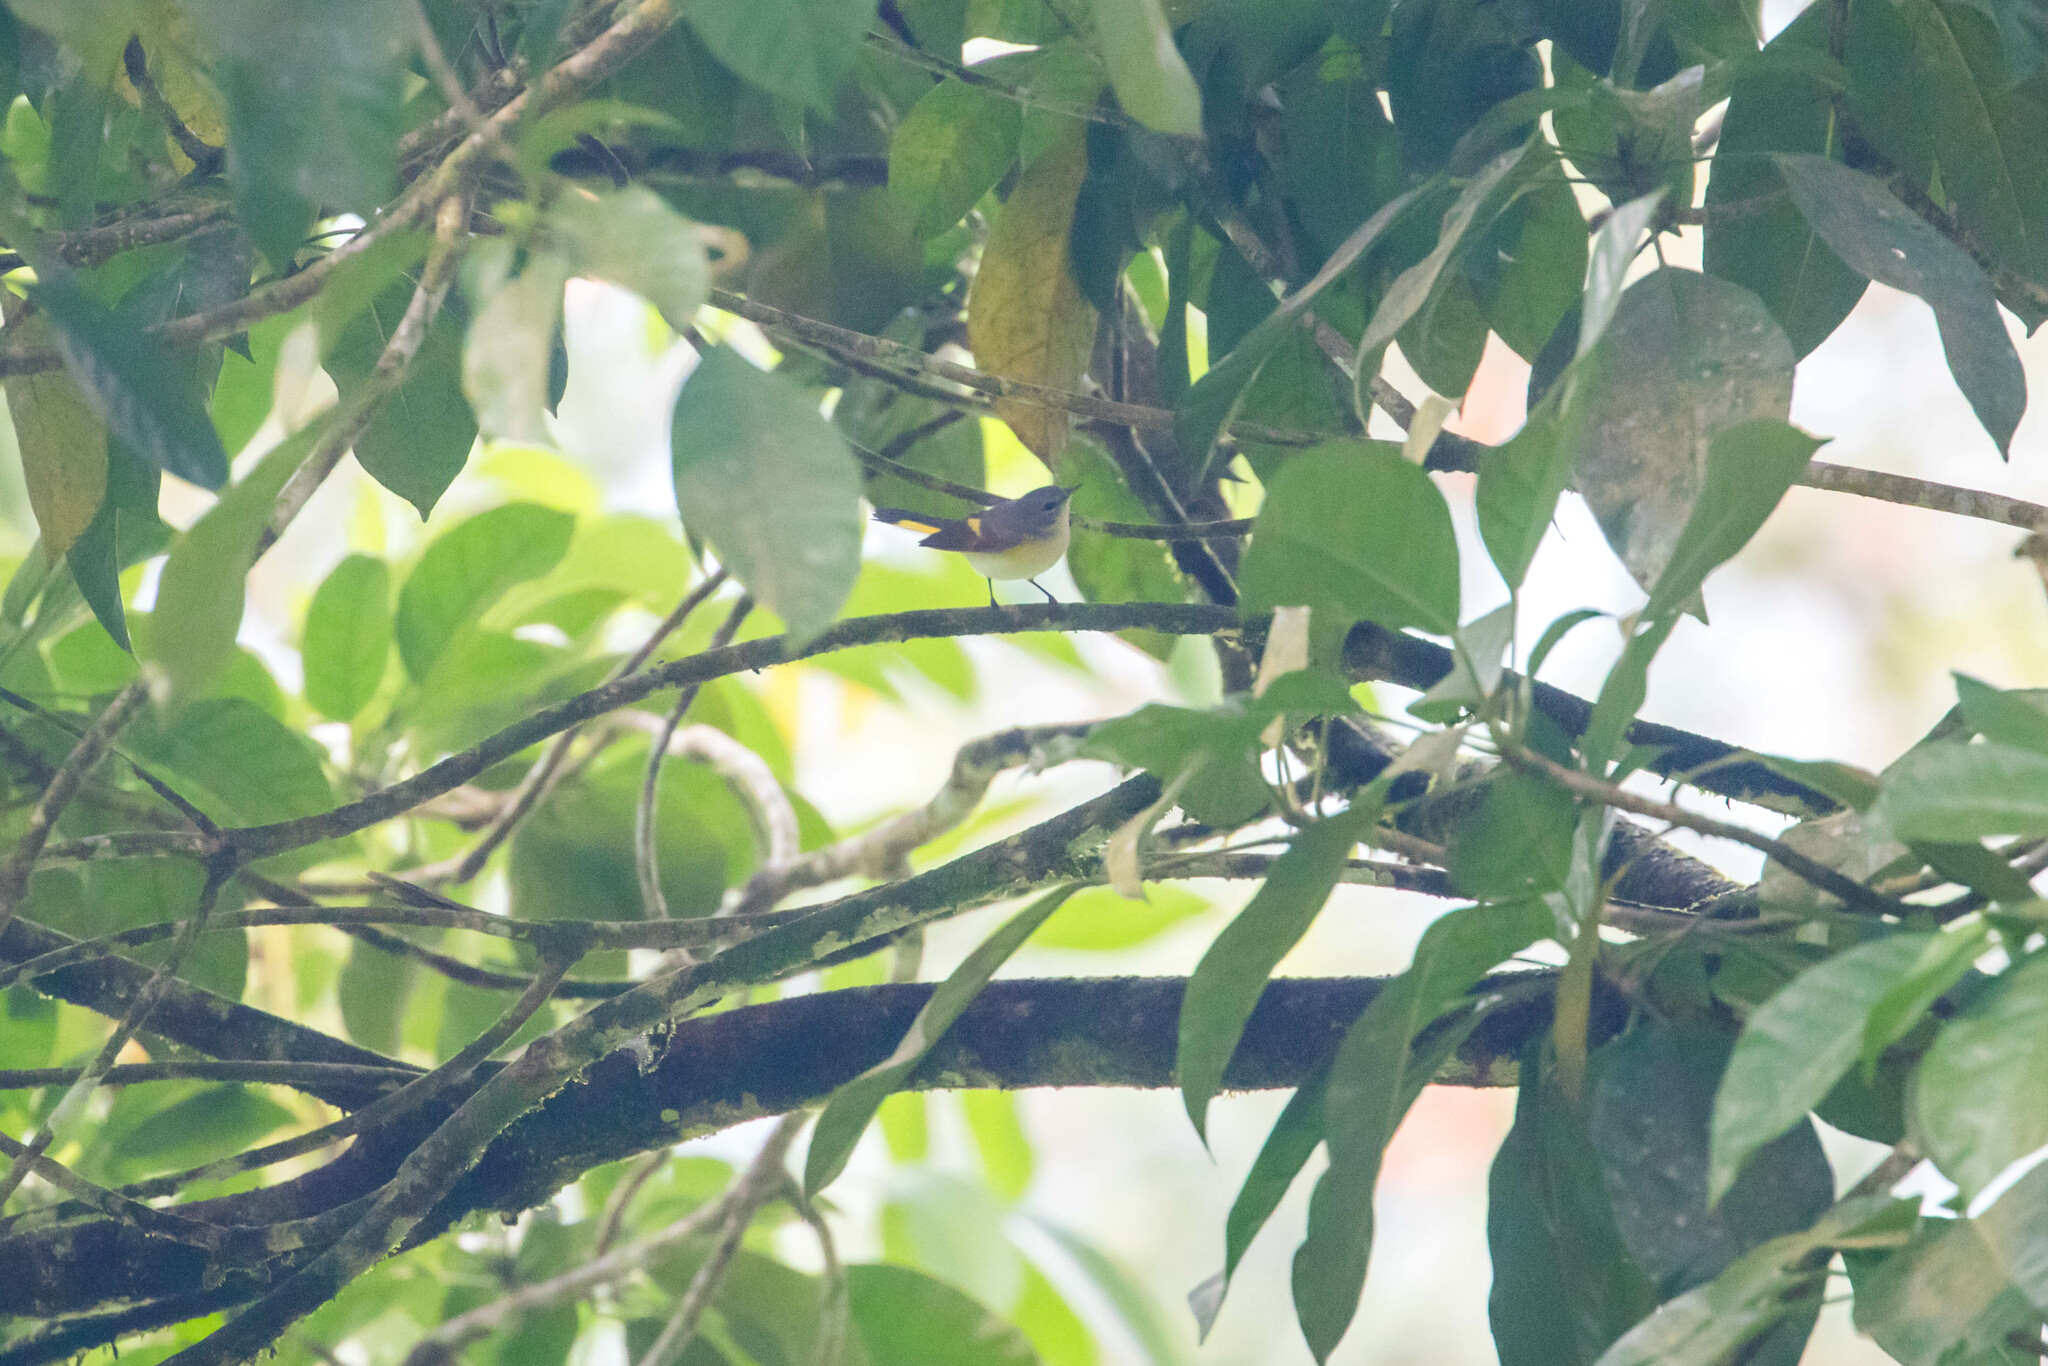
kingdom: Animalia
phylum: Chordata
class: Aves
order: Passeriformes
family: Parulidae
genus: Setophaga
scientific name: Setophaga ruticilla
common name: American redstart
